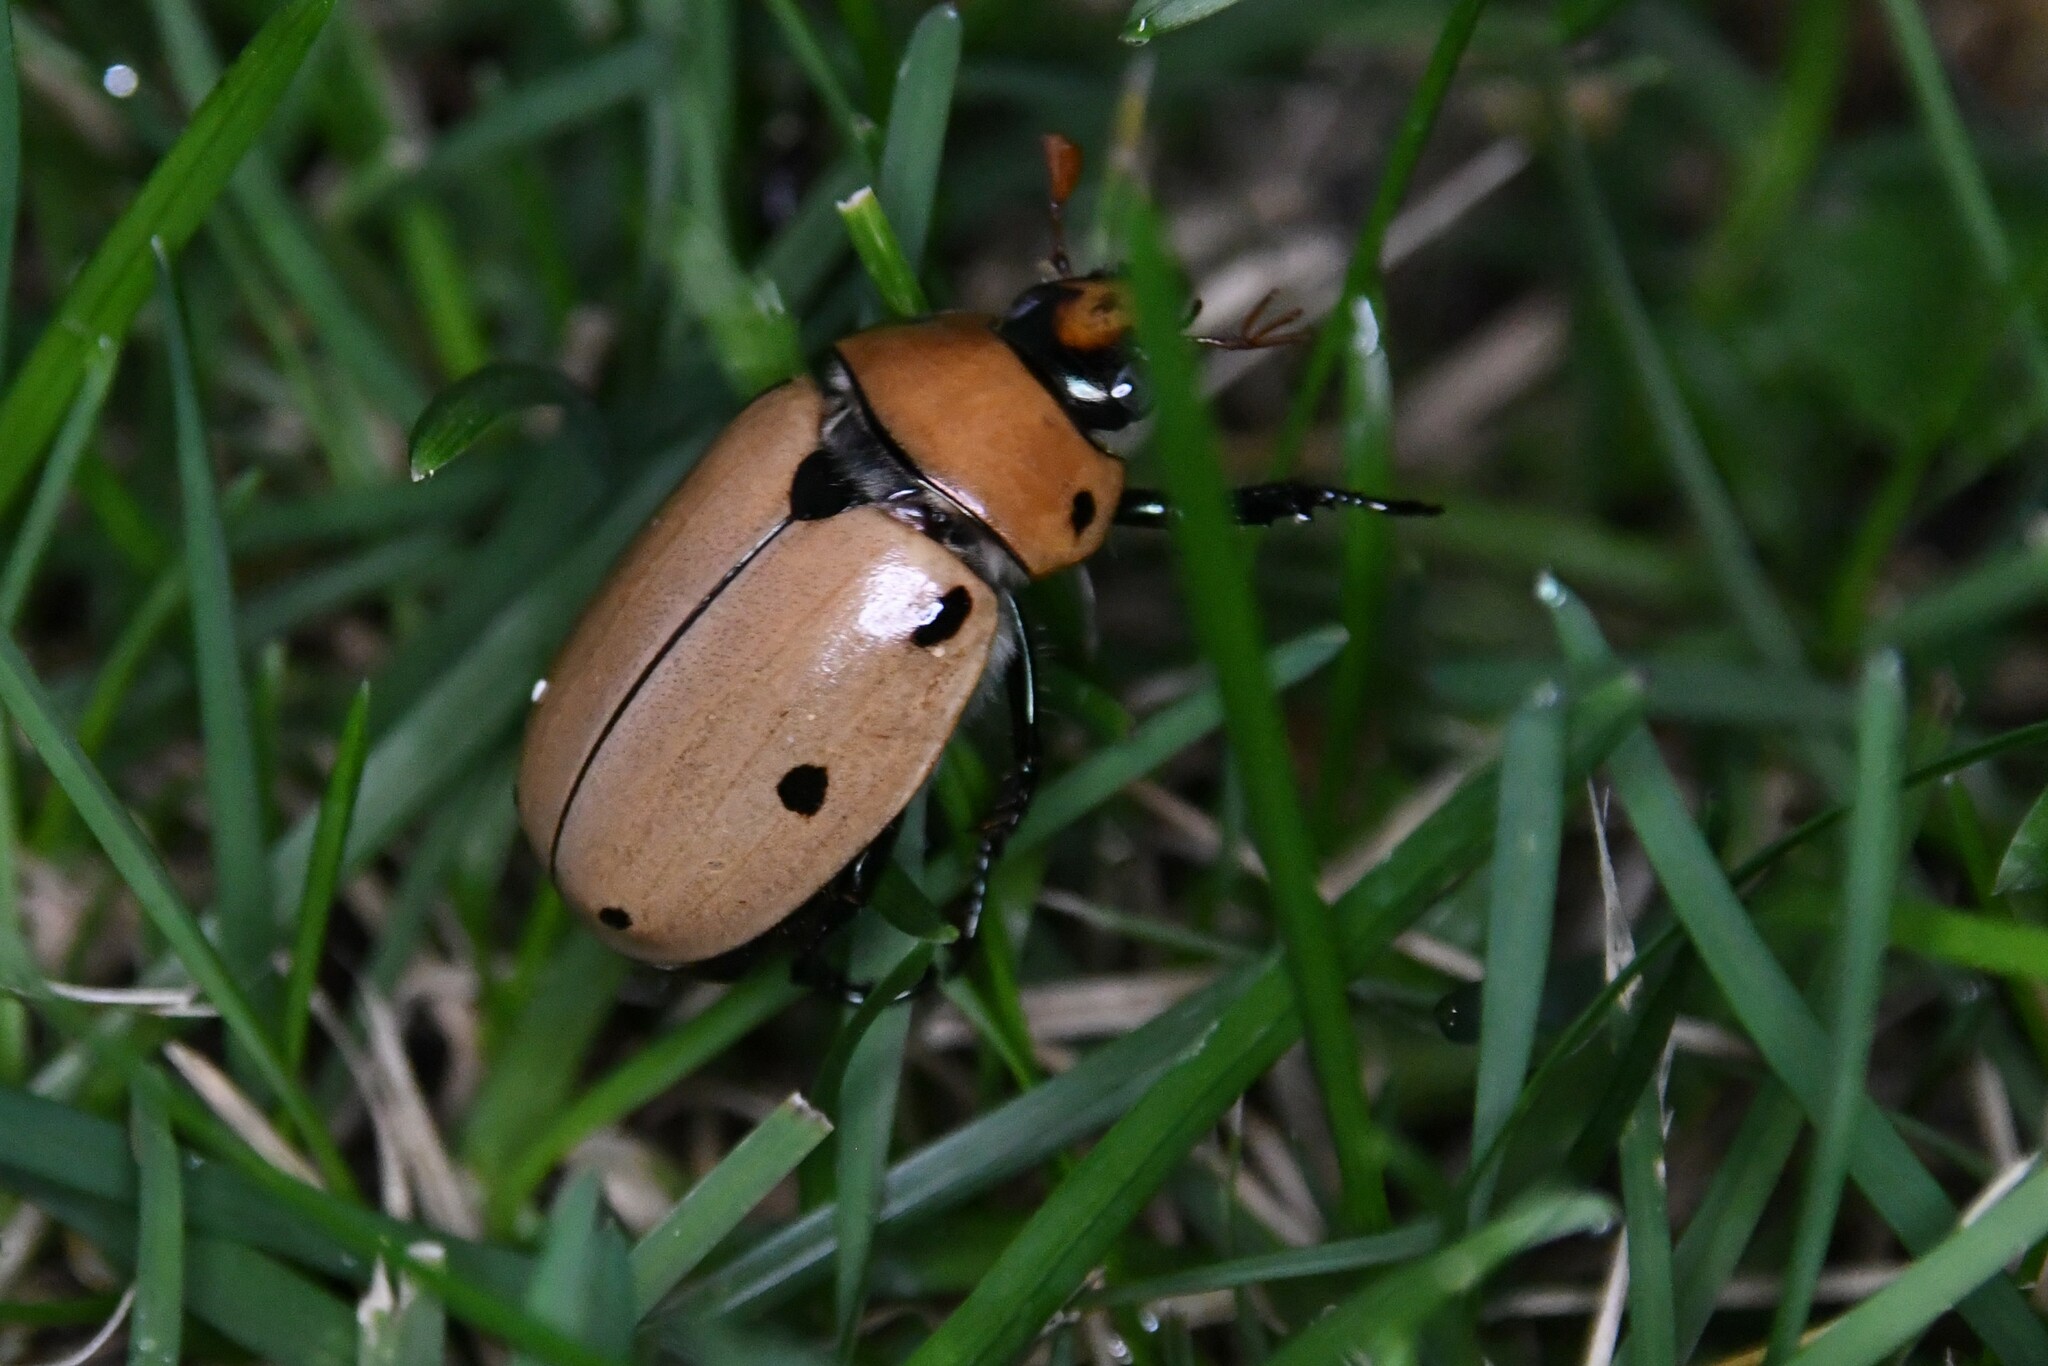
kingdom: Animalia
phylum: Arthropoda
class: Insecta
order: Coleoptera
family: Scarabaeidae
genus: Pelidnota
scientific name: Pelidnota punctata
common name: Grapevine beetle
